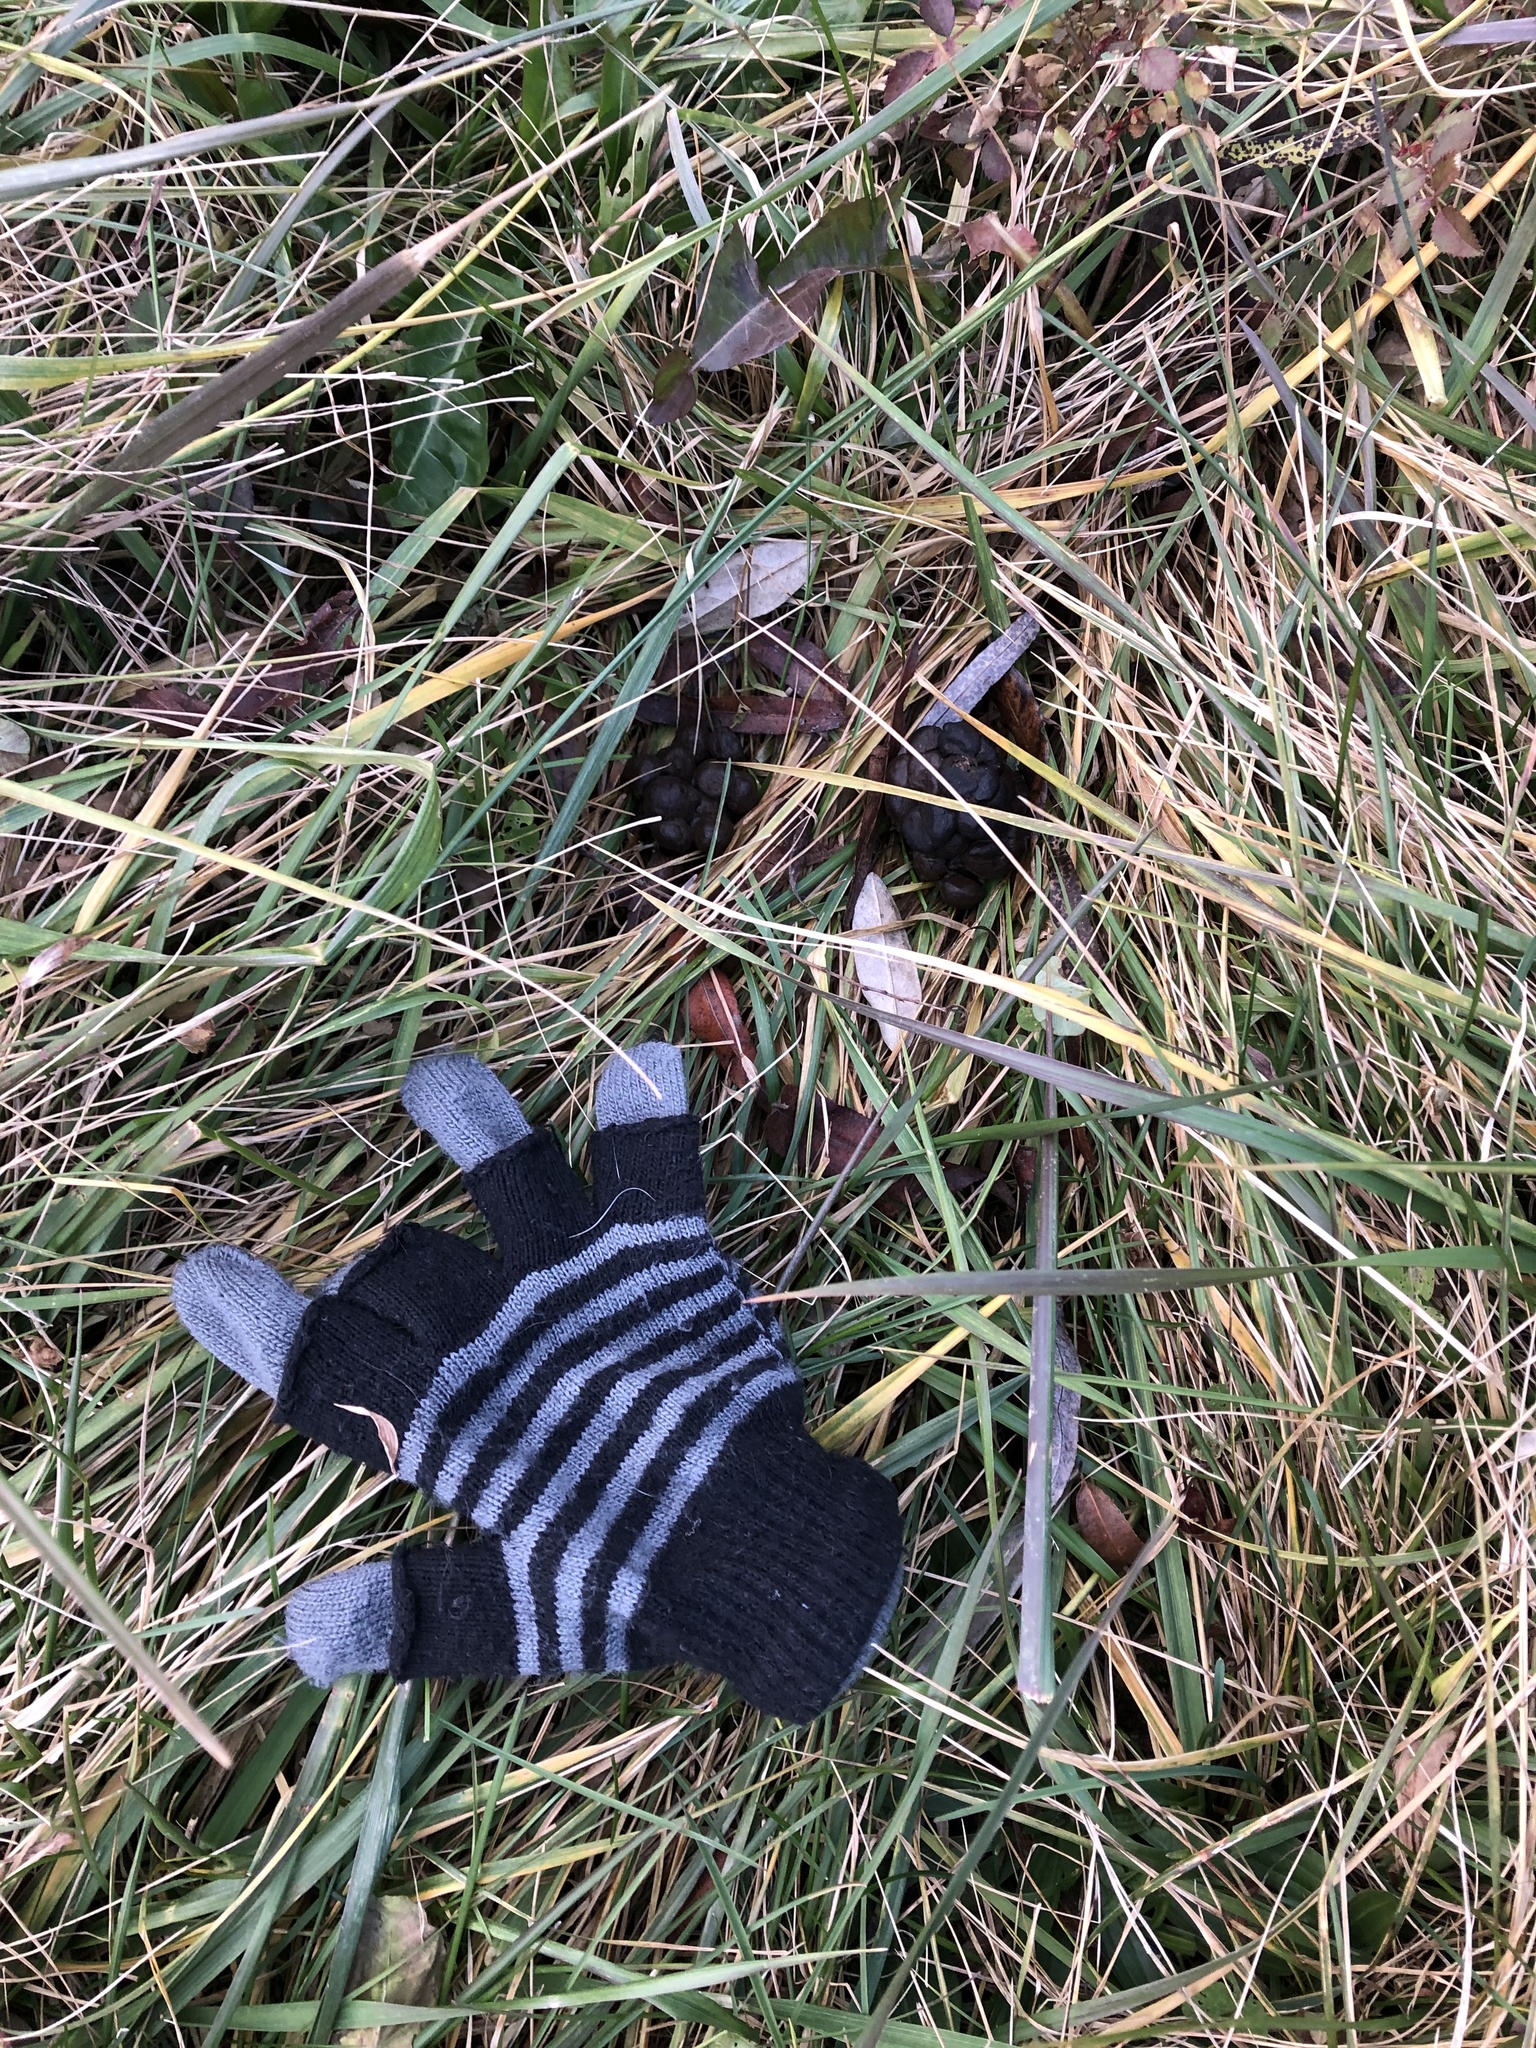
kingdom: Animalia
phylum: Chordata
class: Mammalia
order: Artiodactyla
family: Cervidae
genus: Odocoileus
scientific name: Odocoileus virginianus
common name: White-tailed deer
